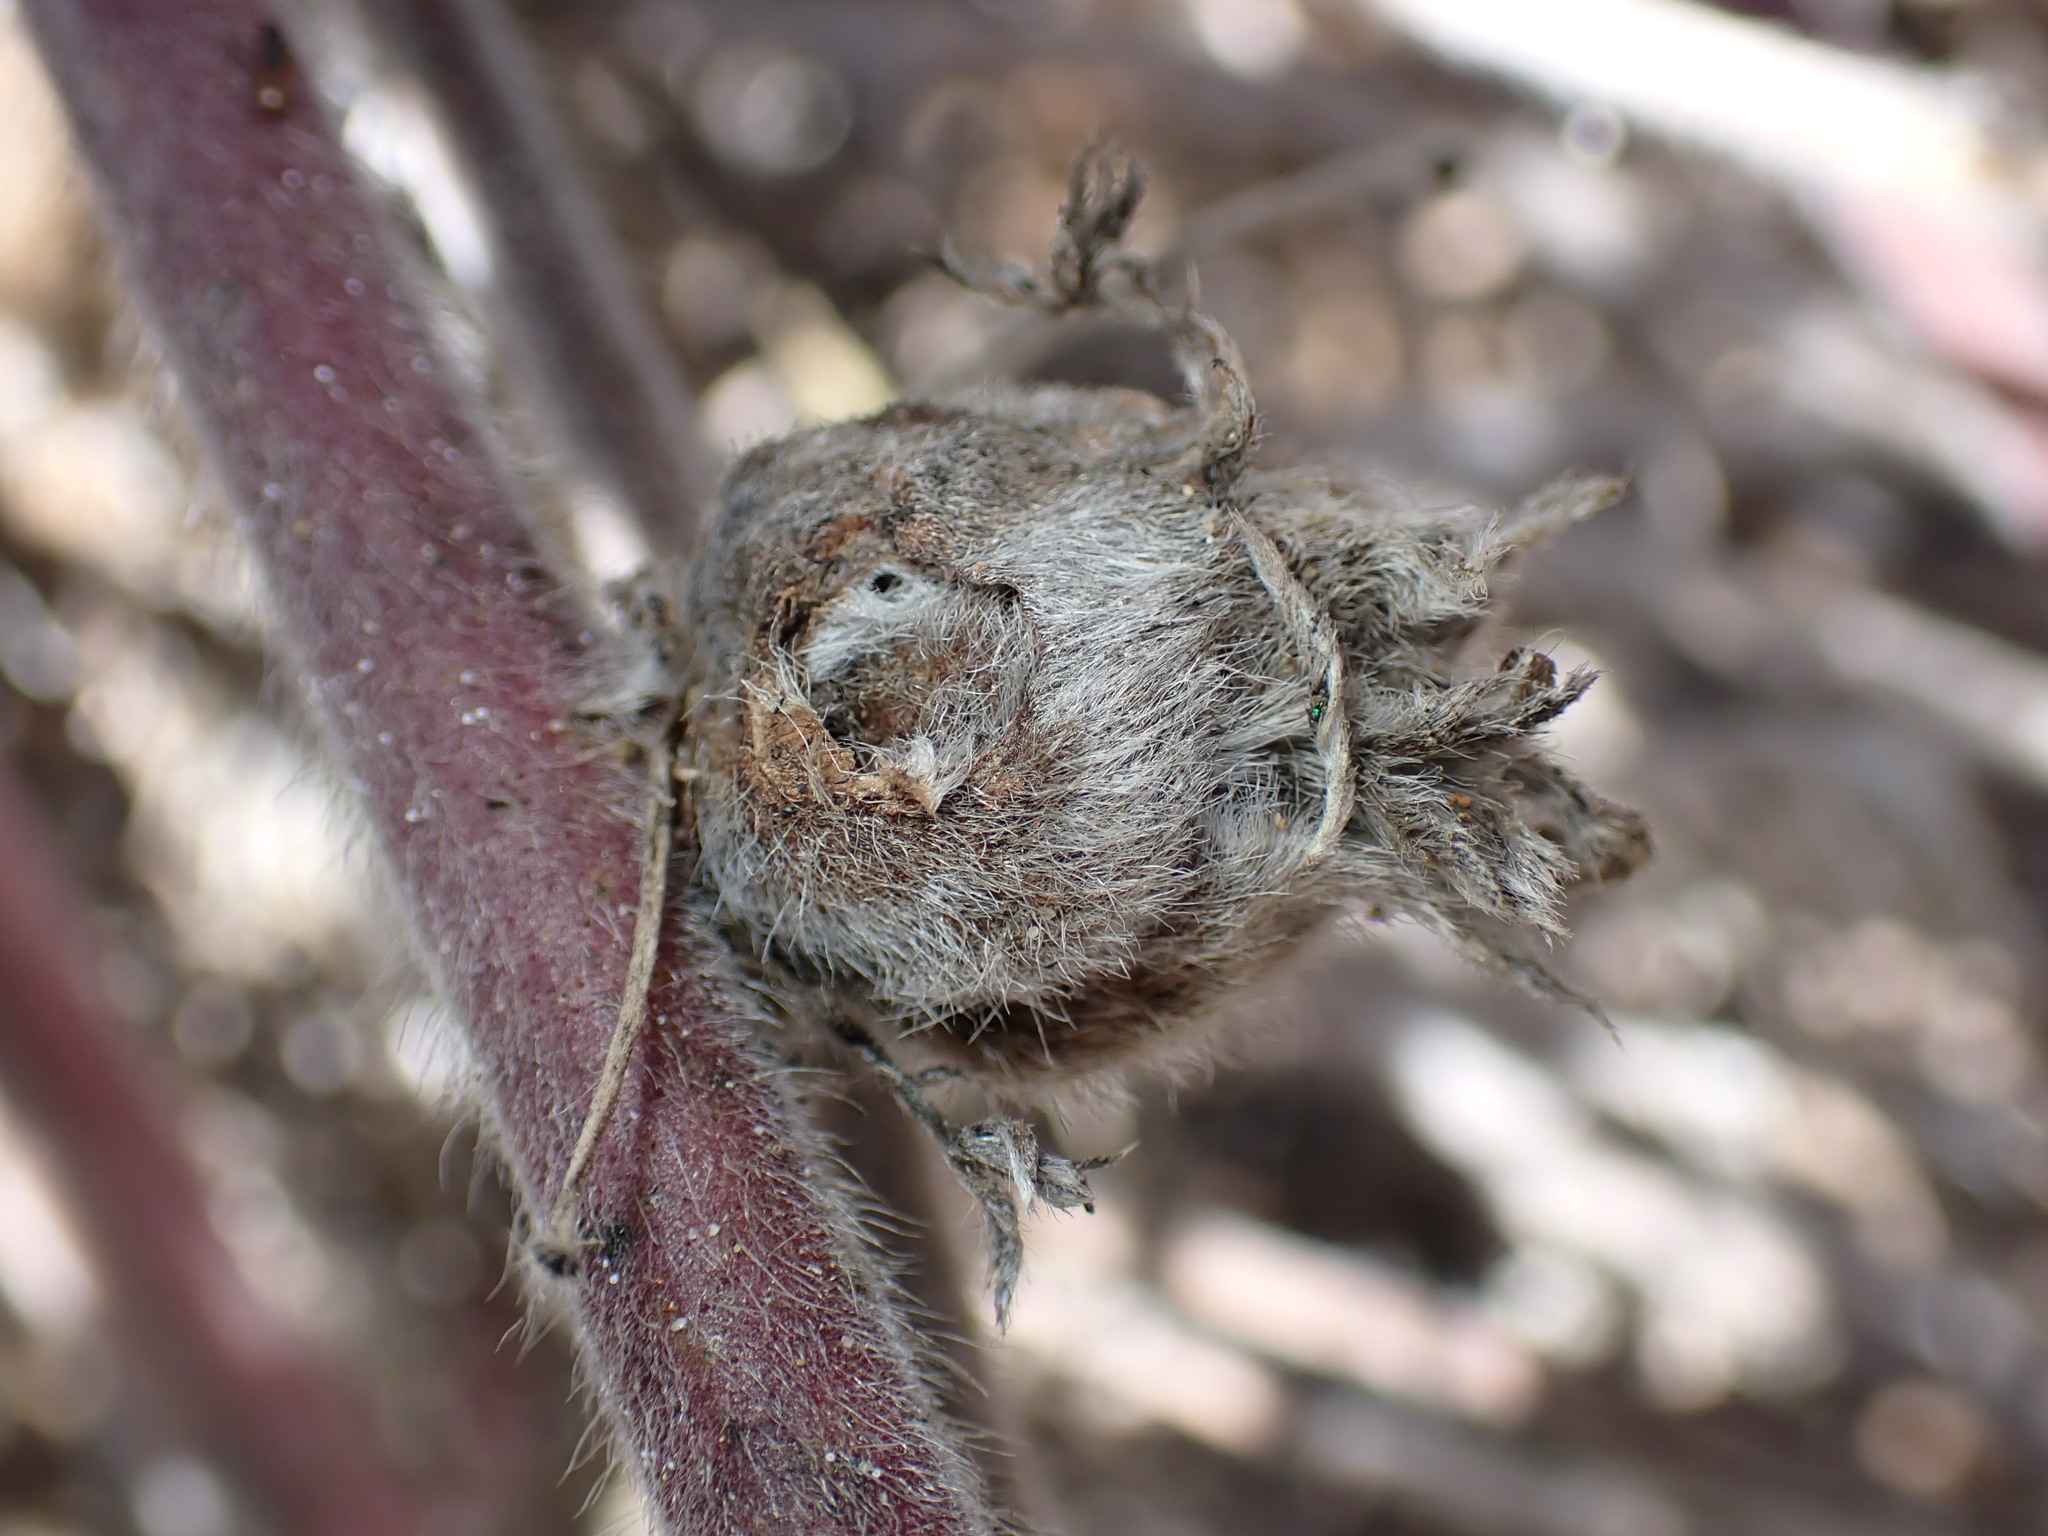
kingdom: Animalia
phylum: Arthropoda
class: Insecta
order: Diptera
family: Cecidomyiidae
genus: Dasineura
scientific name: Dasineura lupini
